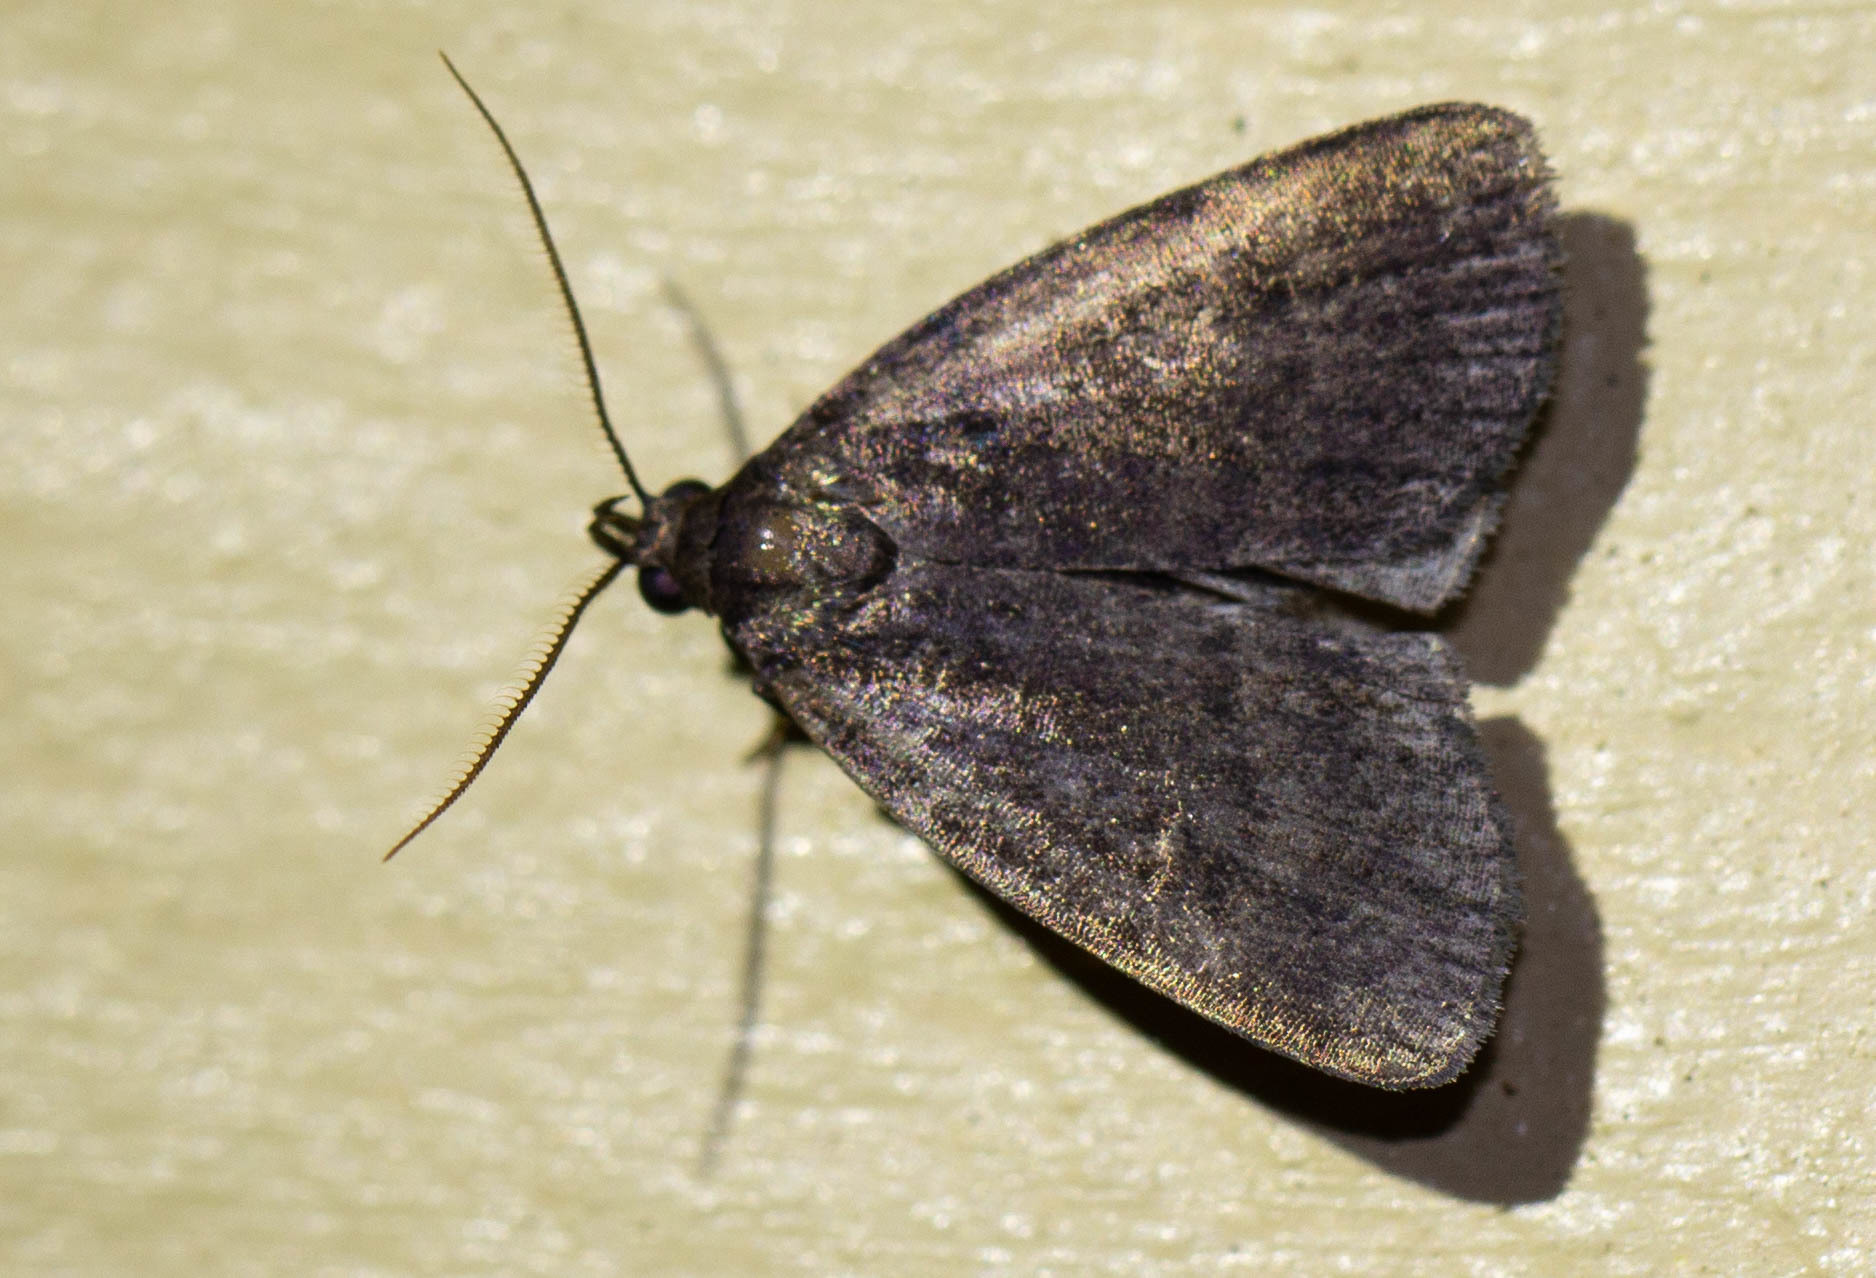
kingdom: Animalia
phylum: Arthropoda
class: Insecta
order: Lepidoptera
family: Erebidae
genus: Idia
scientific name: Idia rotundalis
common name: Rotund idia moth
